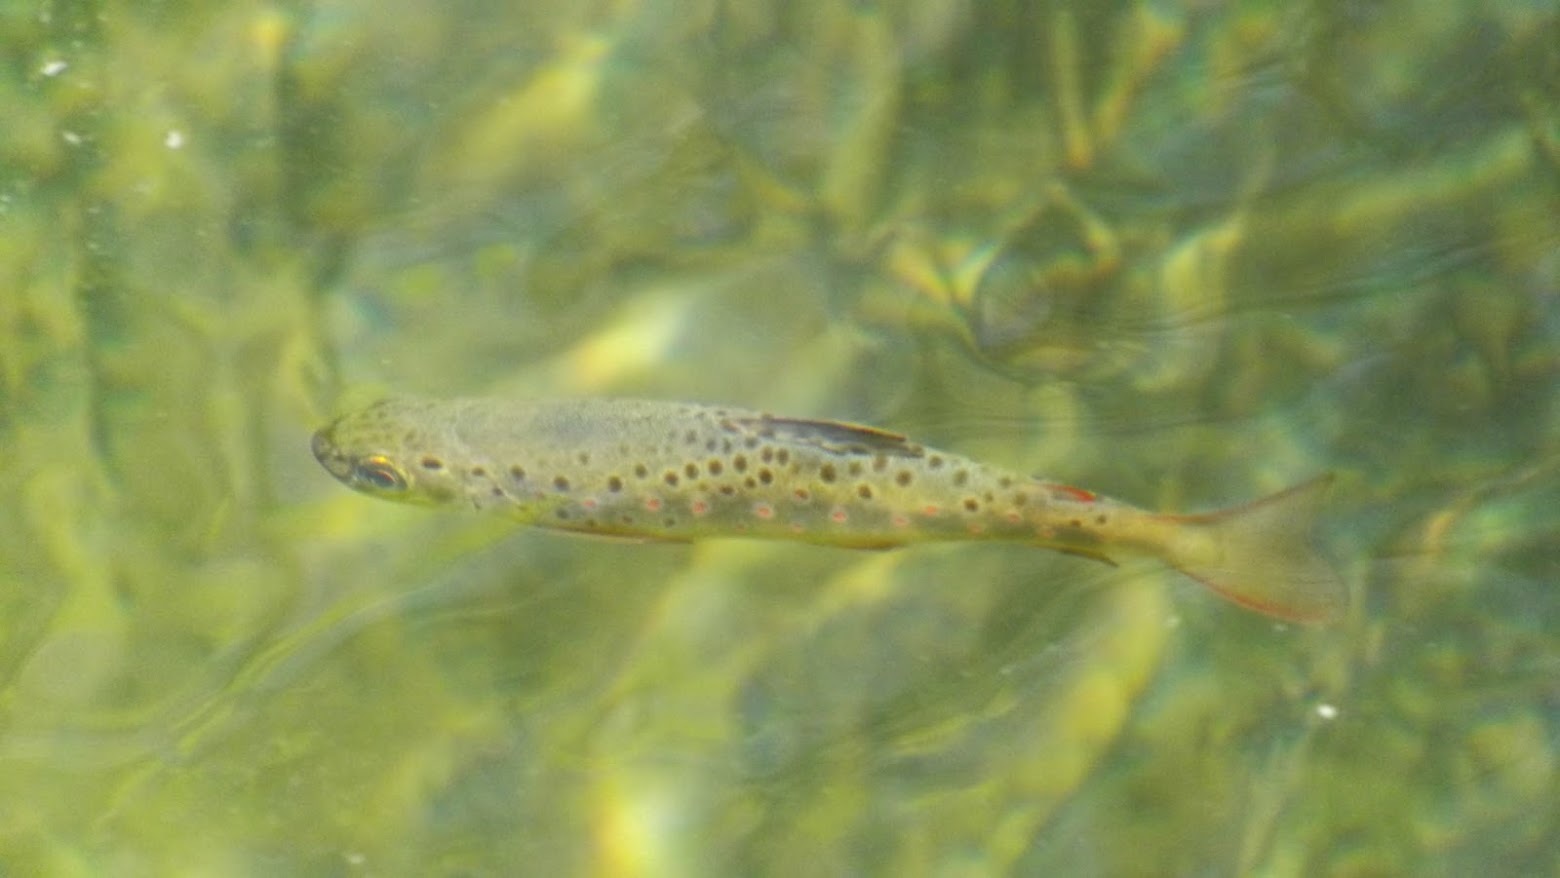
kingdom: Animalia
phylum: Chordata
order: Salmoniformes
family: Salmonidae
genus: Salmo
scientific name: Salmo trutta
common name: Brown trout
